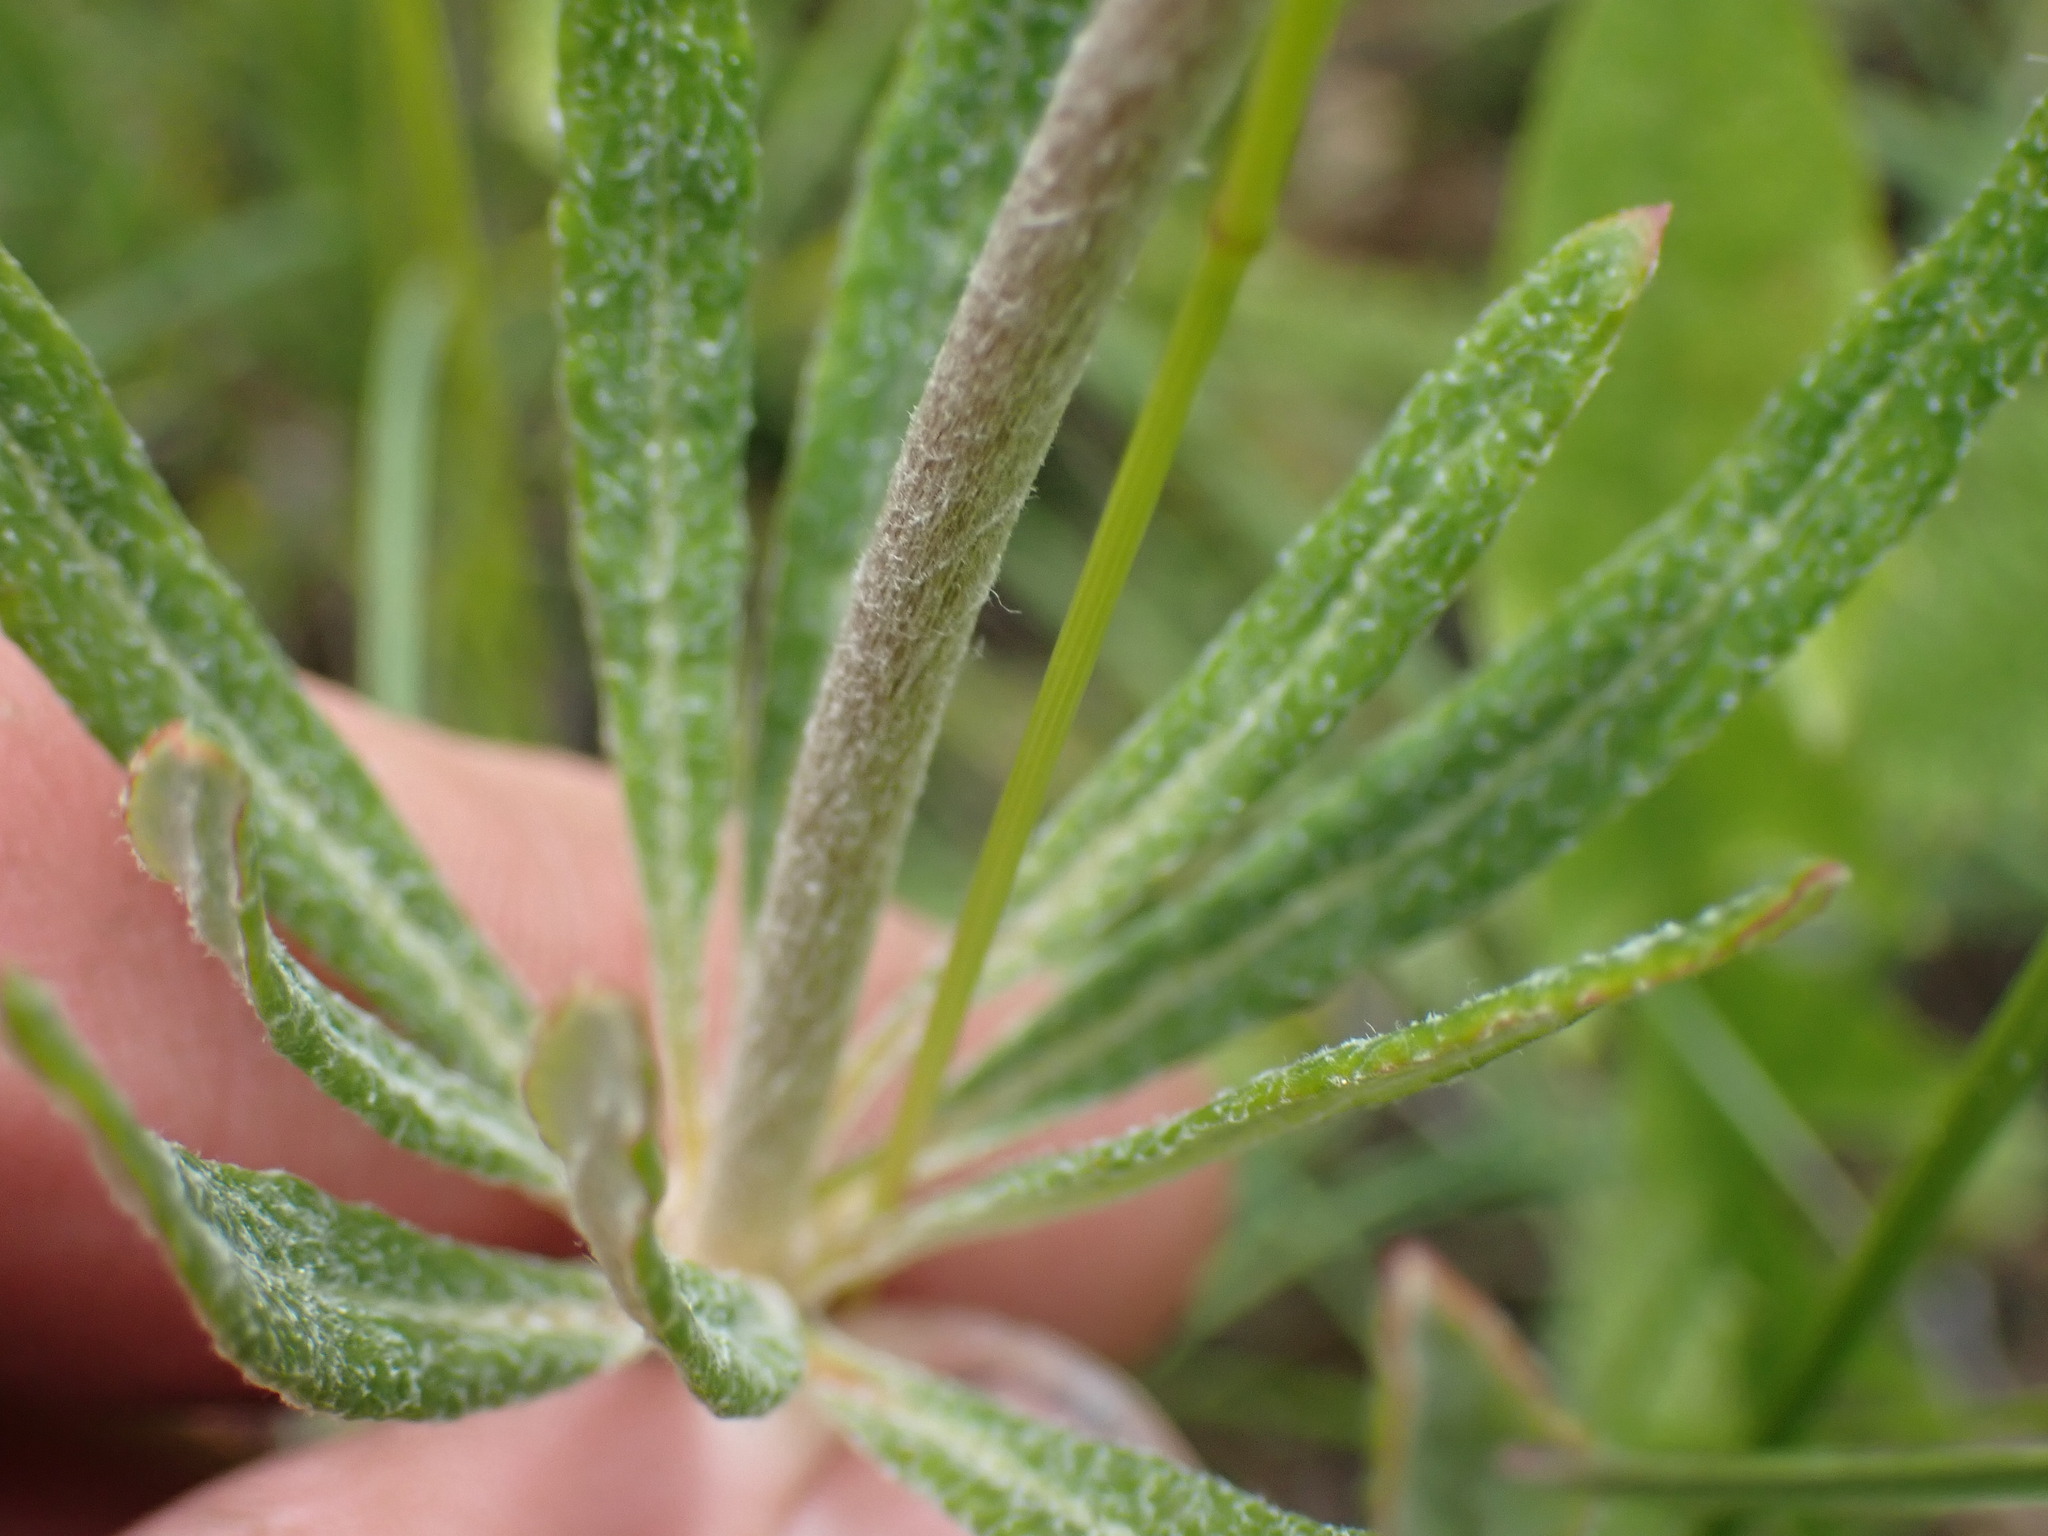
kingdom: Plantae
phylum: Tracheophyta
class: Magnoliopsida
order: Caryophyllales
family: Polygonaceae
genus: Eriogonum
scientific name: Eriogonum heracleoides
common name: Wyeth's buckwheat
